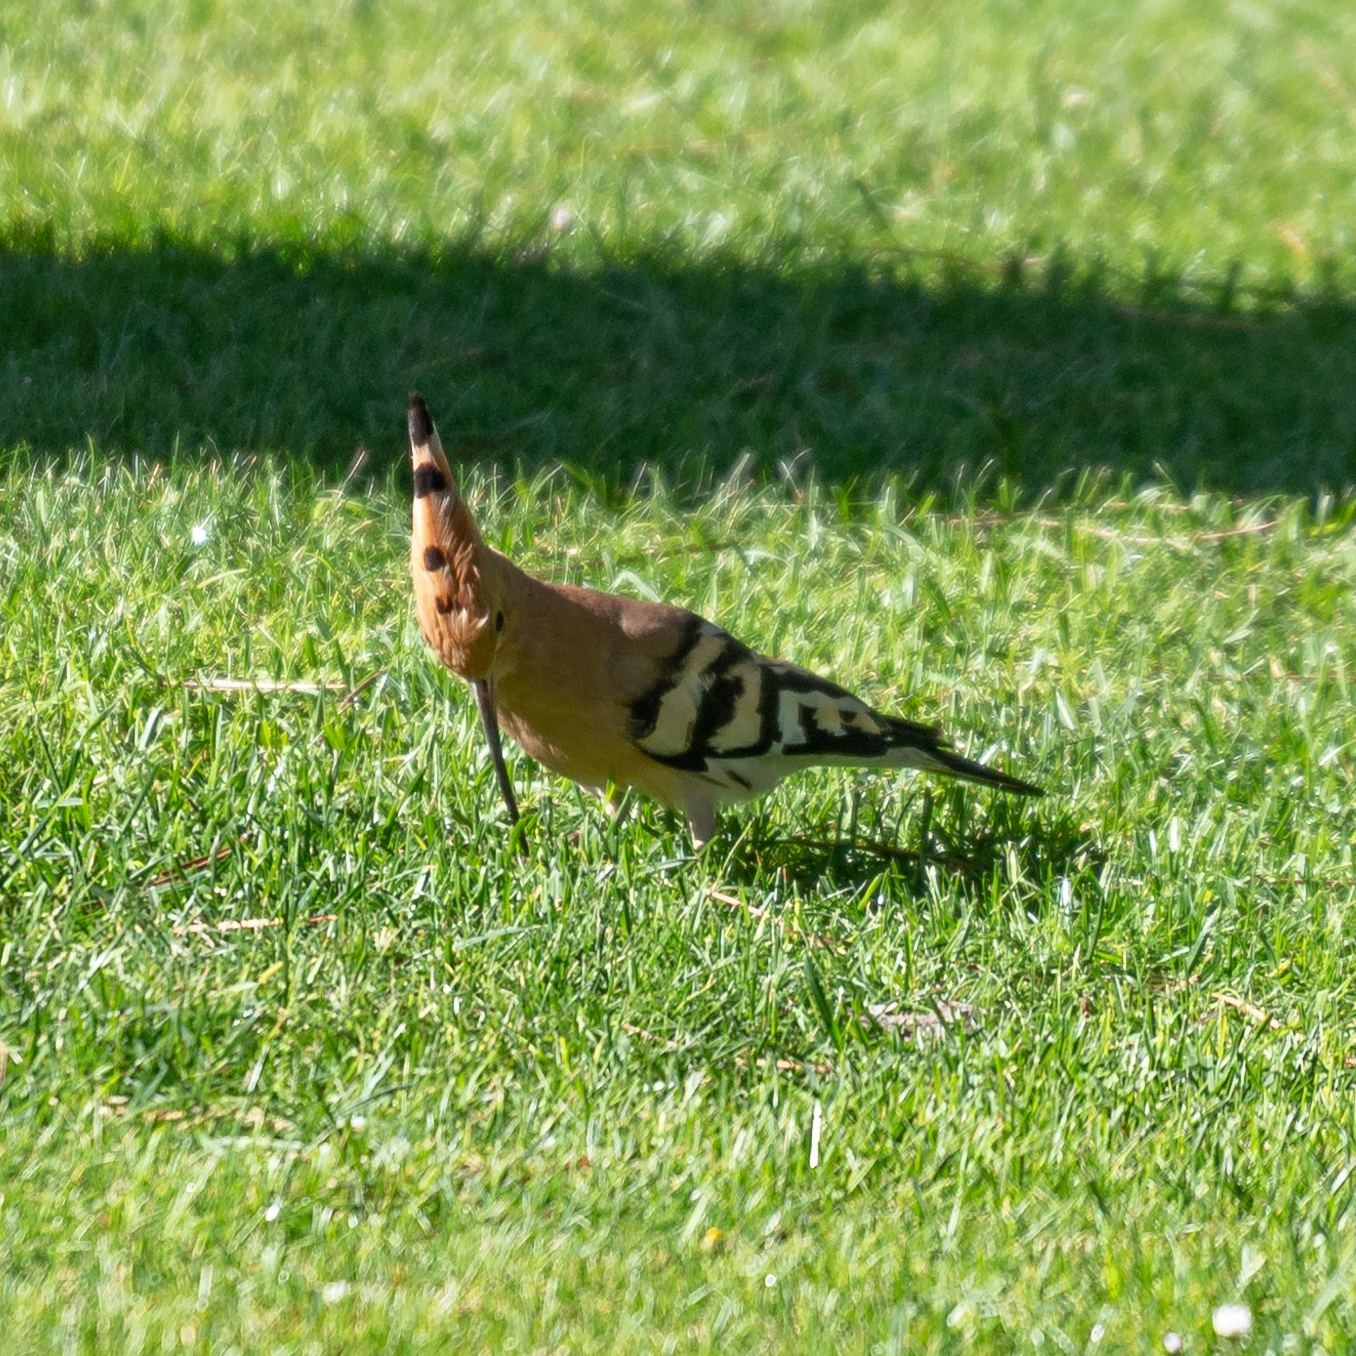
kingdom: Animalia
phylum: Chordata
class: Aves
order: Bucerotiformes
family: Upupidae
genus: Upupa
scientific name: Upupa epops
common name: Eurasian hoopoe
